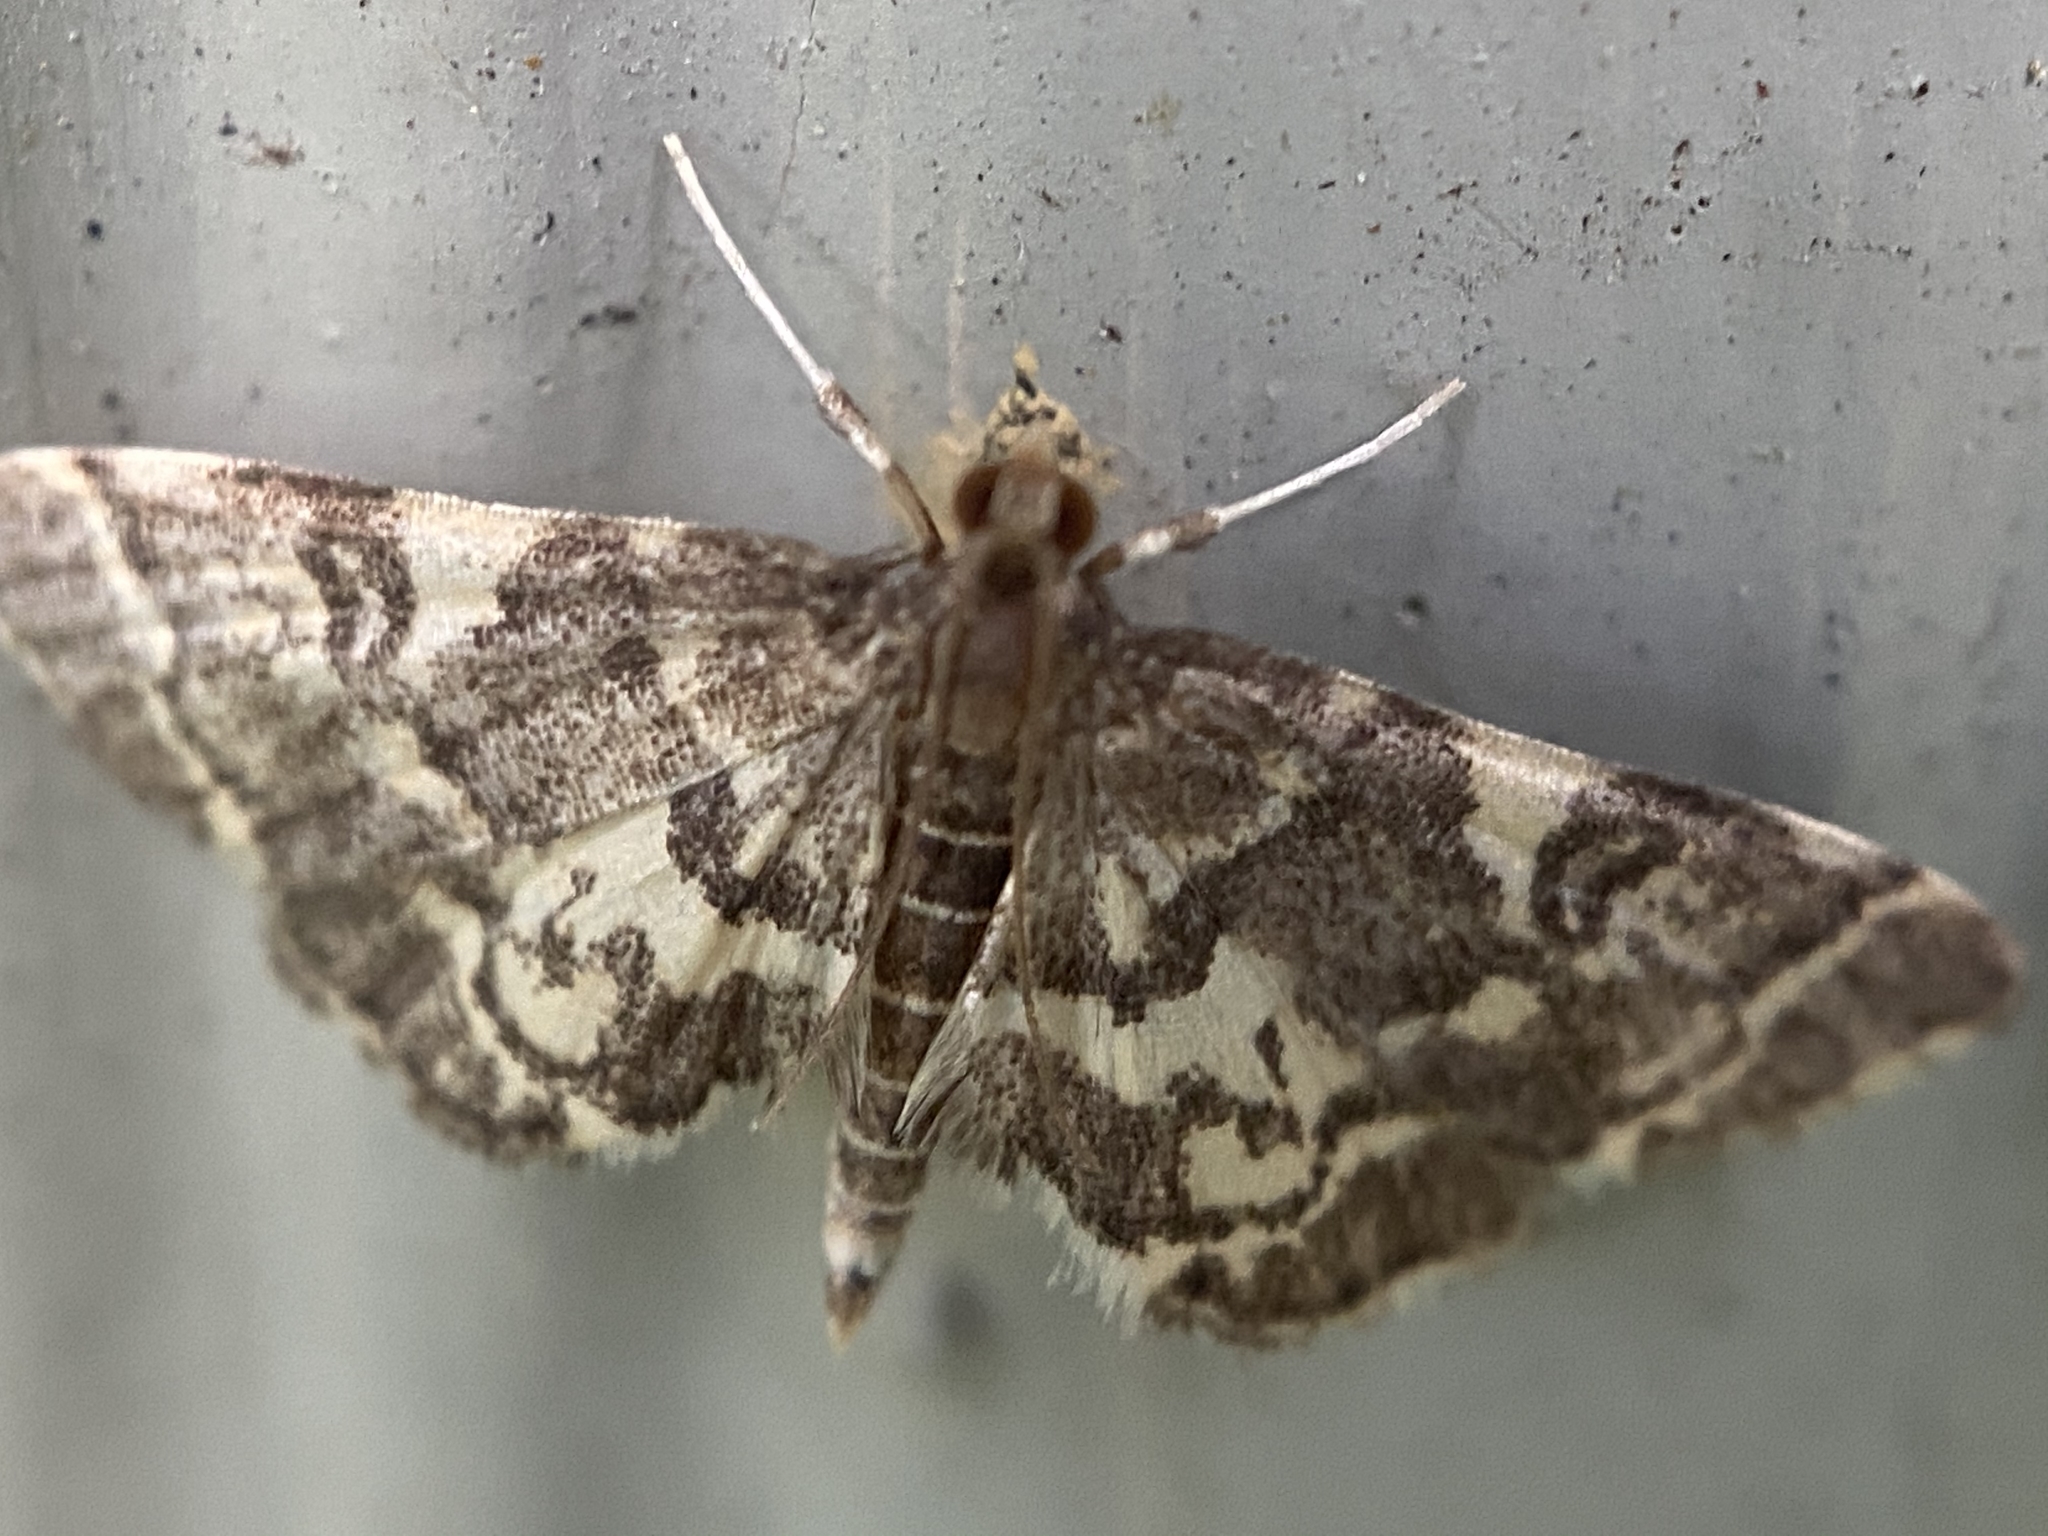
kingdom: Animalia
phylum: Arthropoda
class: Insecta
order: Lepidoptera
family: Crambidae
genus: Anageshna
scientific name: Anageshna primordialis
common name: Yellow-spotted webworm moth
